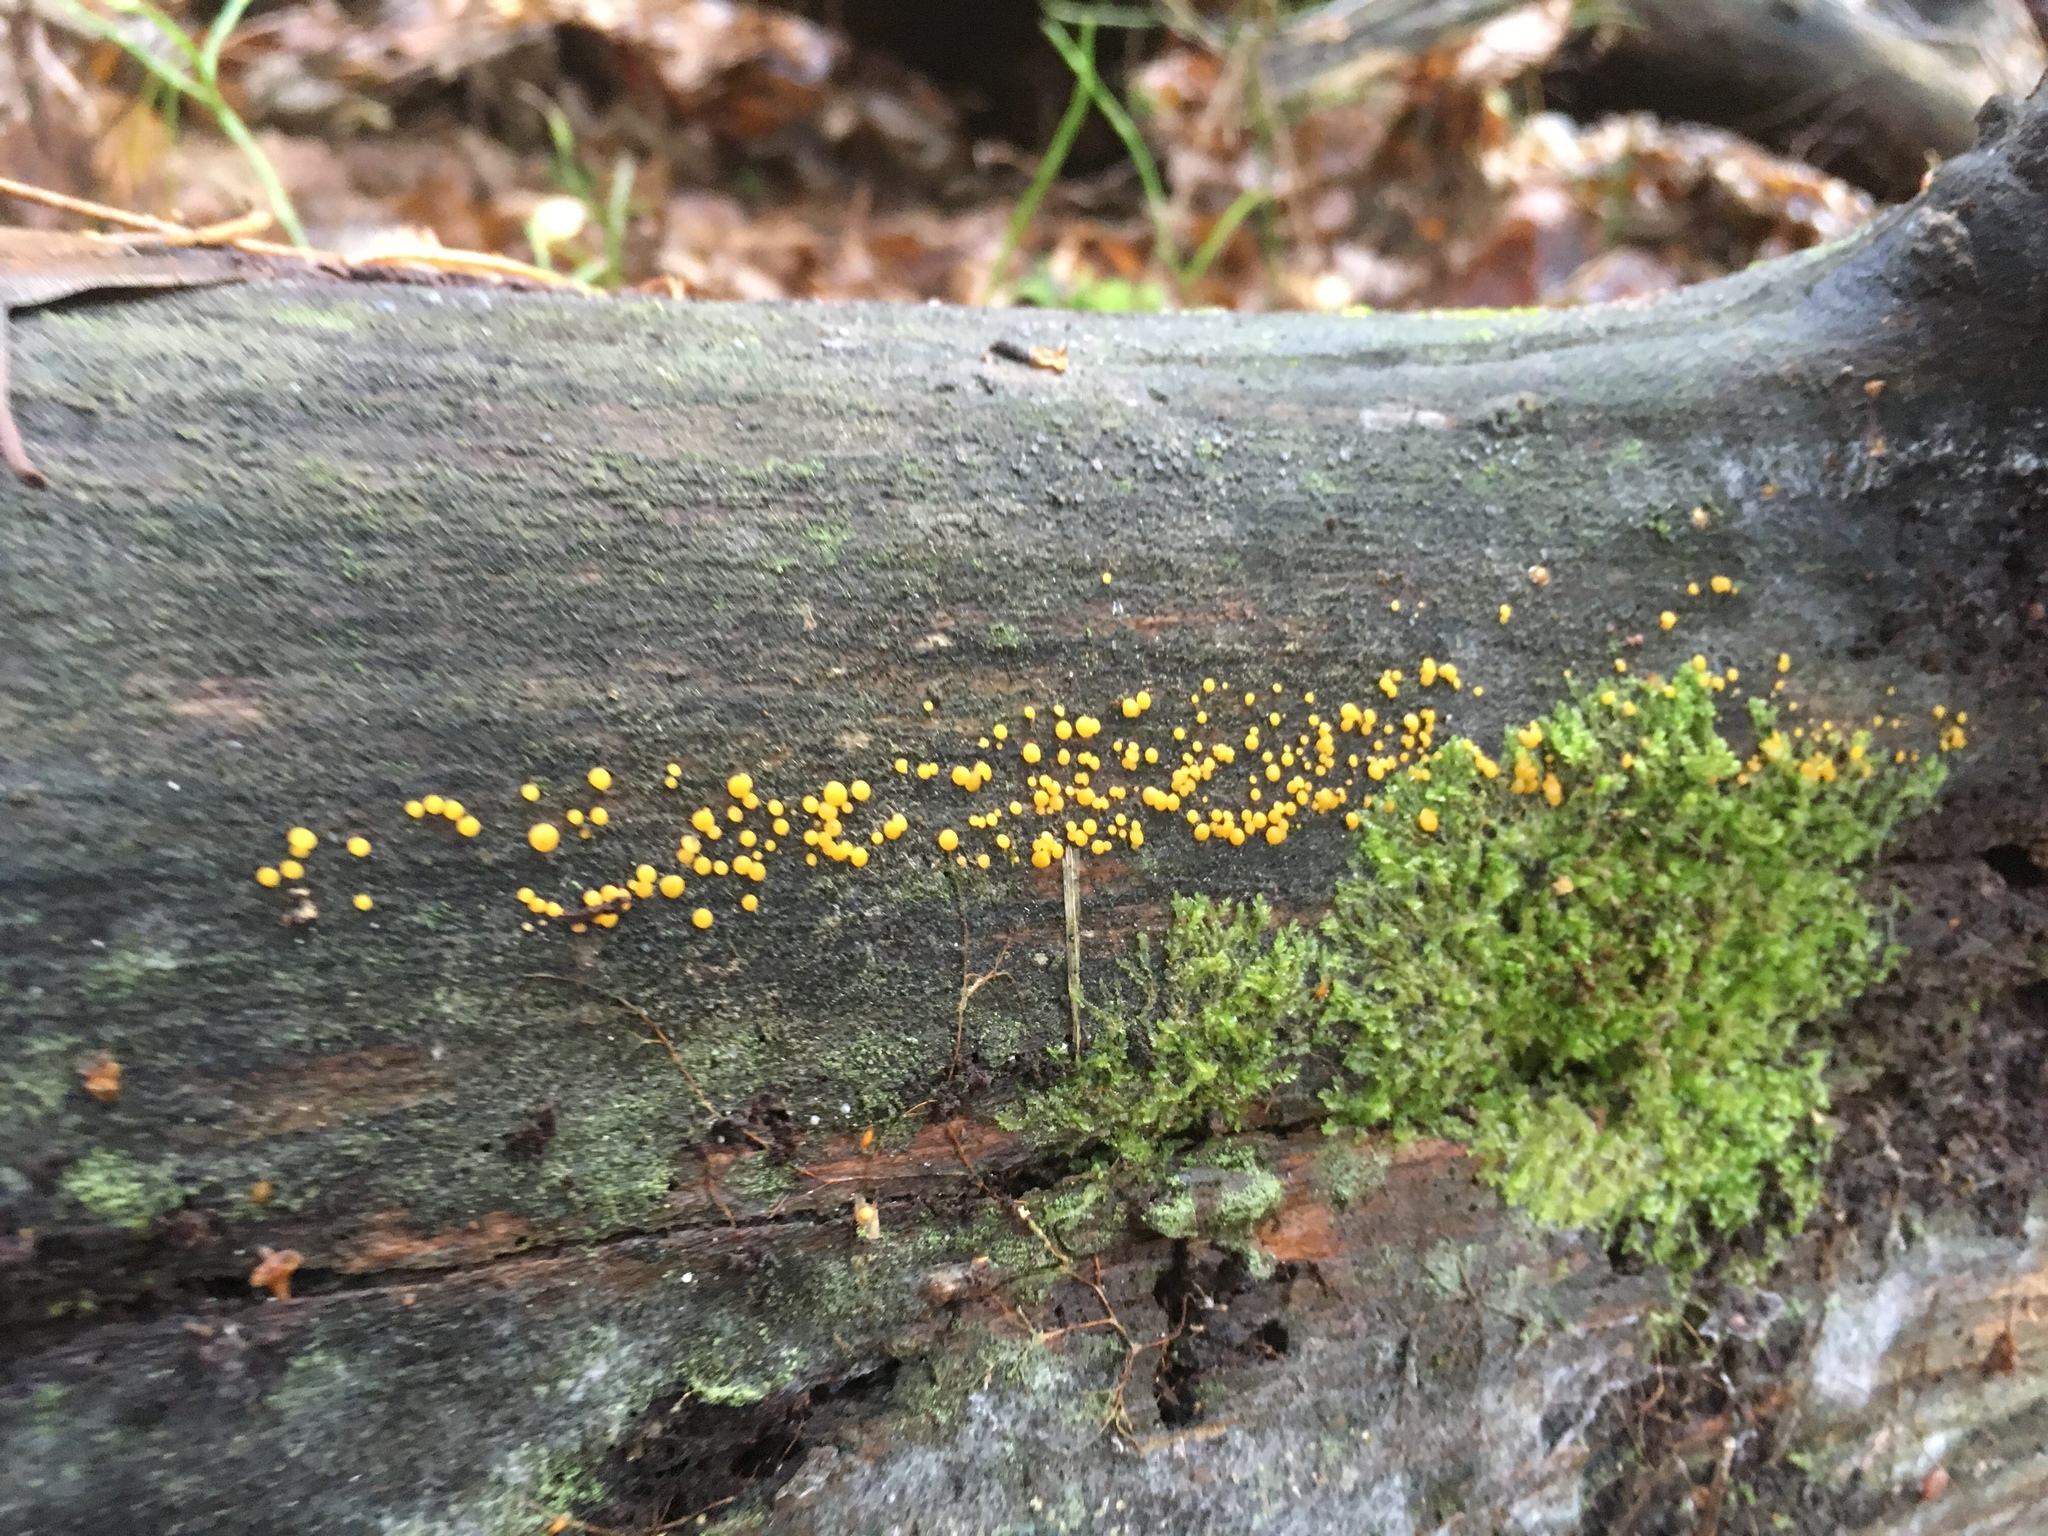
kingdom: Fungi
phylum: Ascomycota
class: Leotiomycetes
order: Helotiales
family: Pezizellaceae
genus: Calycina
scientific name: Calycina citrina
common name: Yellow fairy cups
